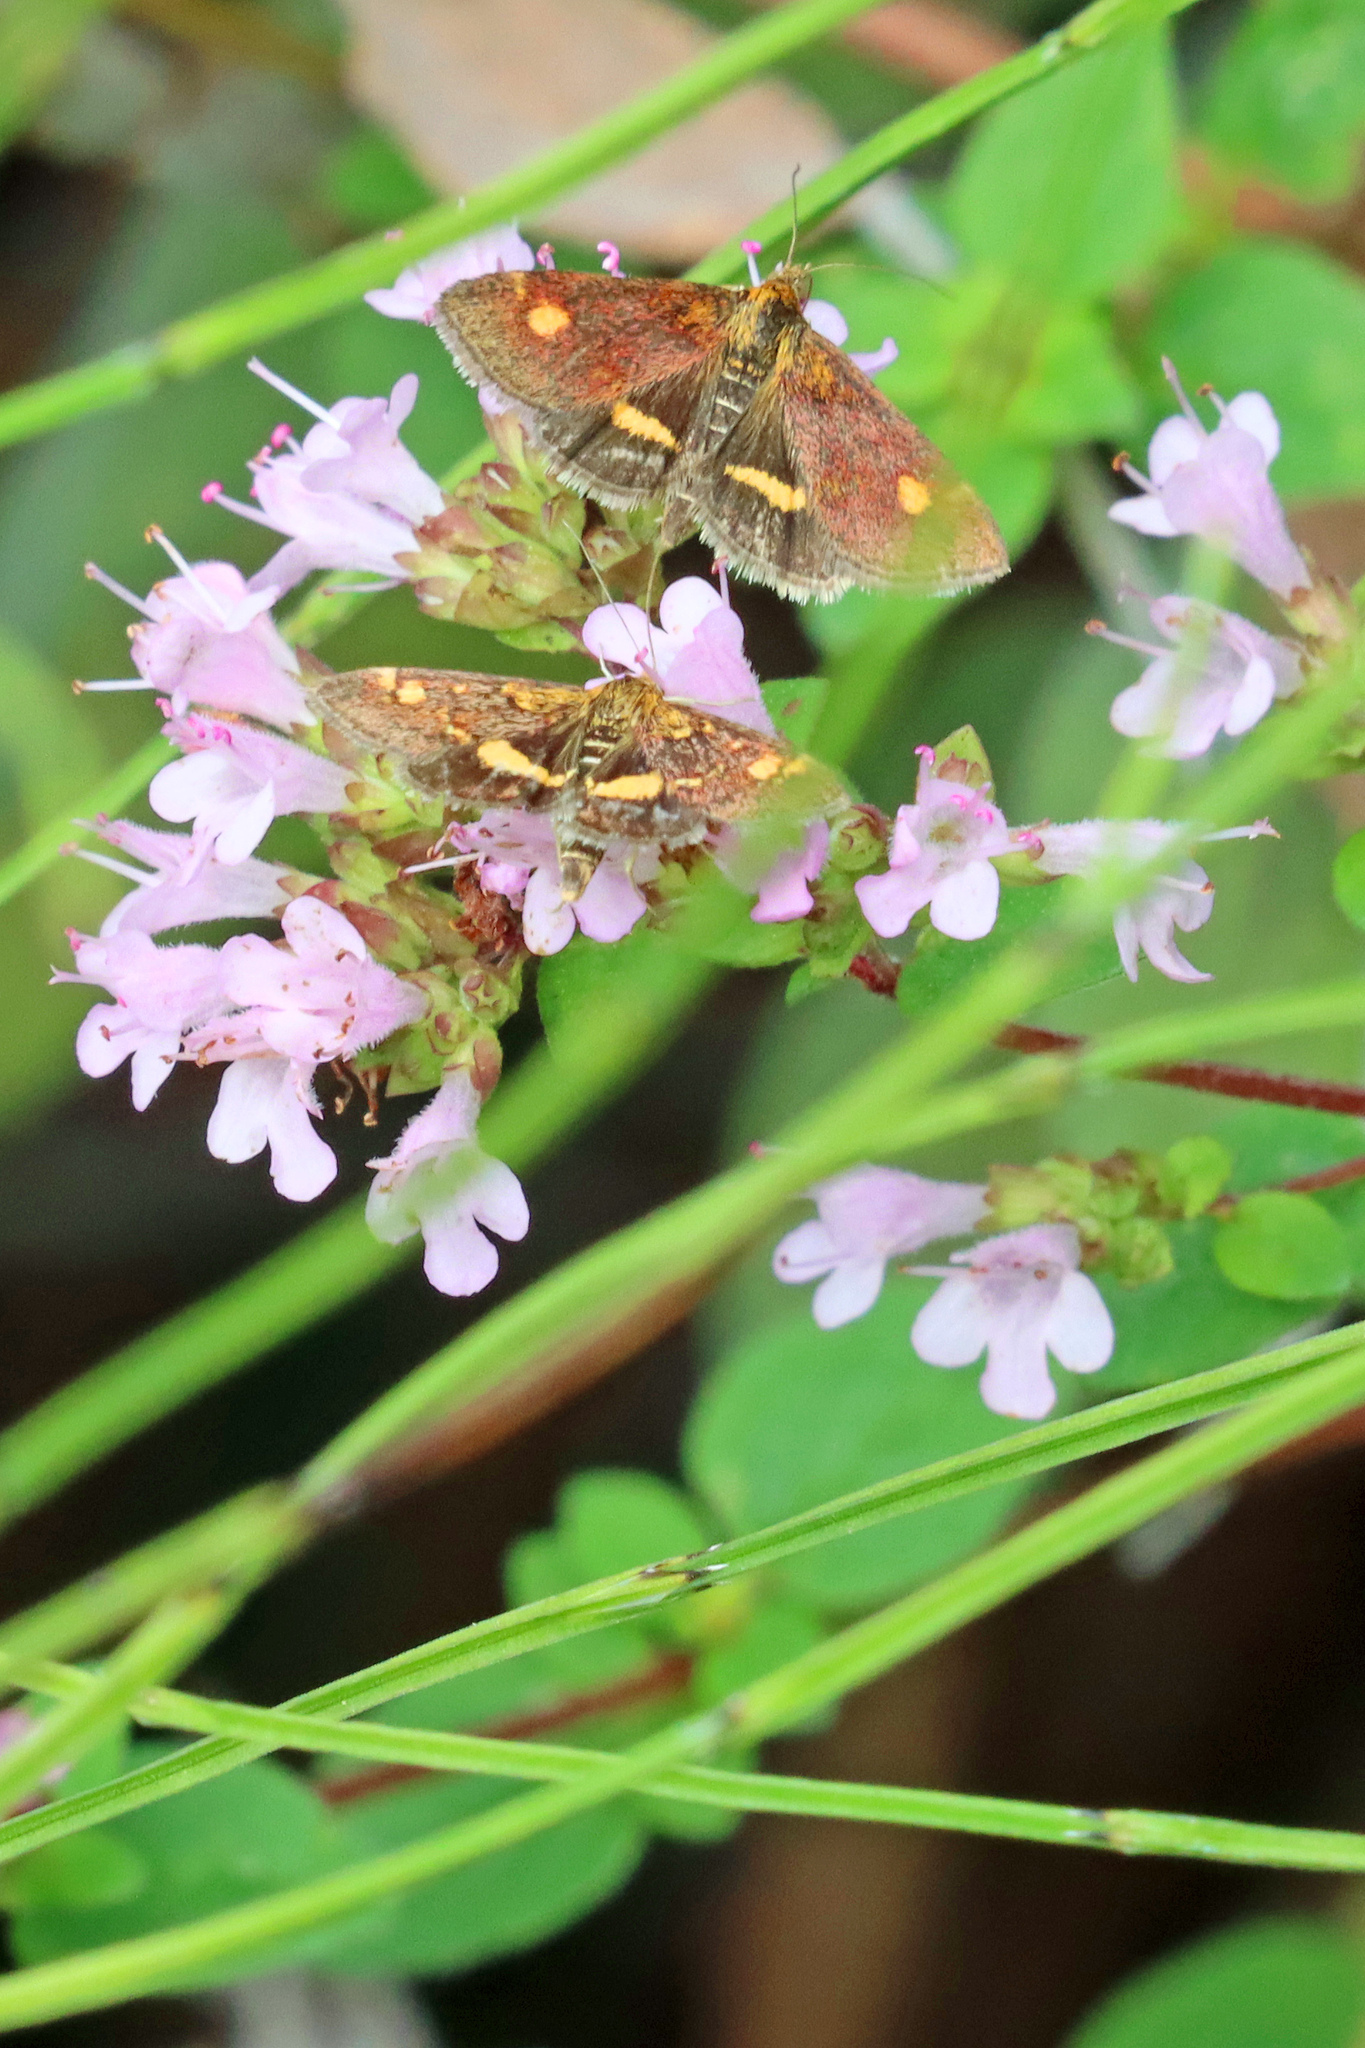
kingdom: Animalia
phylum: Arthropoda
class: Insecta
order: Lepidoptera
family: Crambidae
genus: Pyrausta
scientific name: Pyrausta aurata
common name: Small purple & gold
